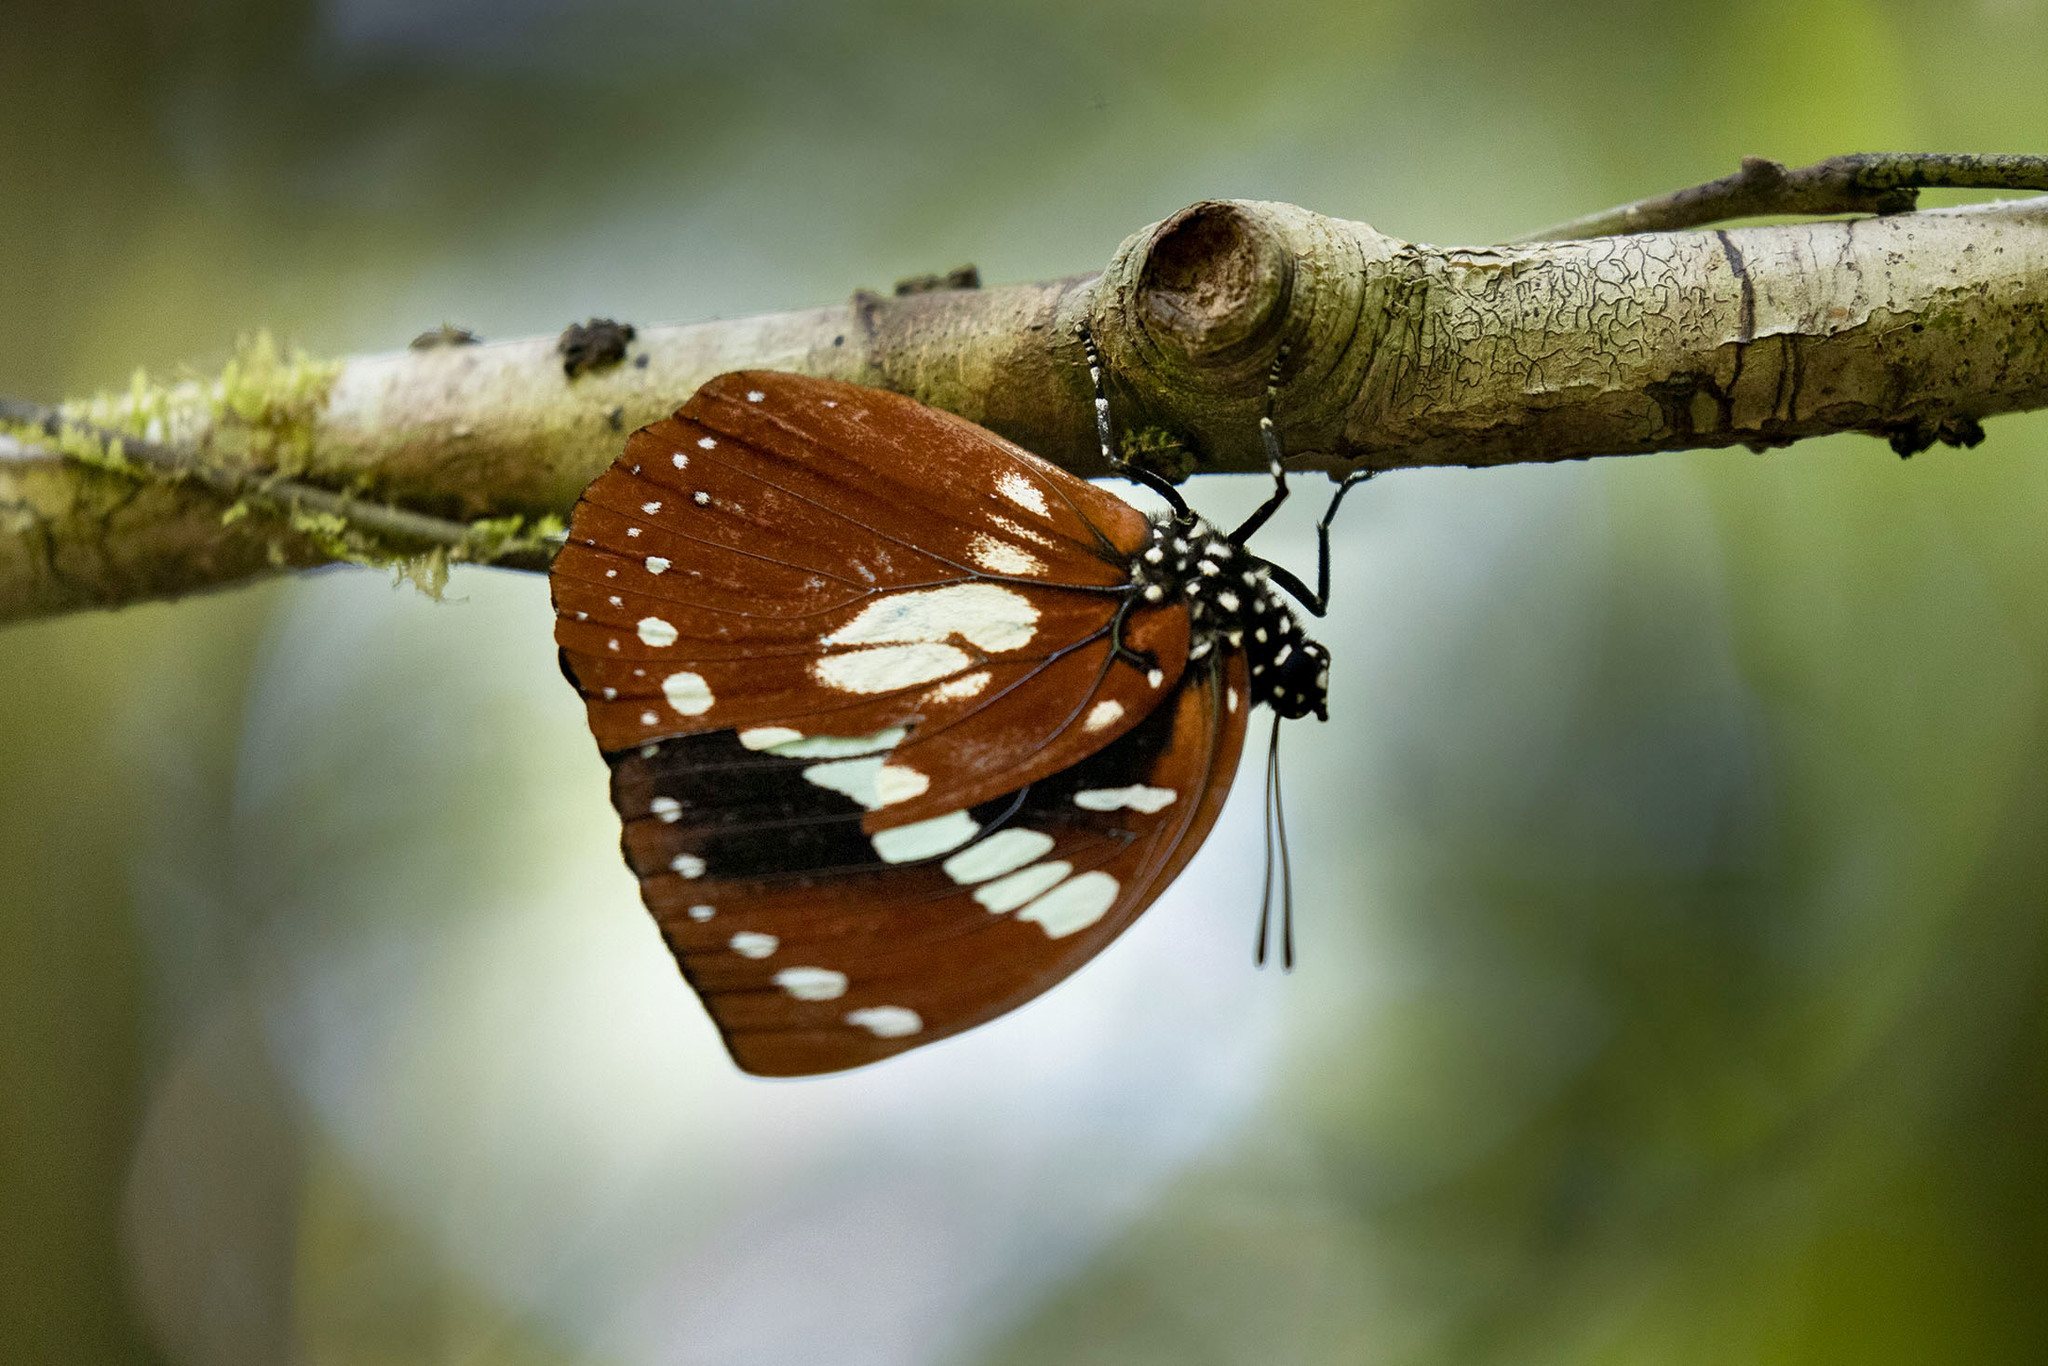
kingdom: Animalia
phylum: Arthropoda
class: Insecta
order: Lepidoptera
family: Nymphalidae
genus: Charaxes
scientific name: Charaxes
